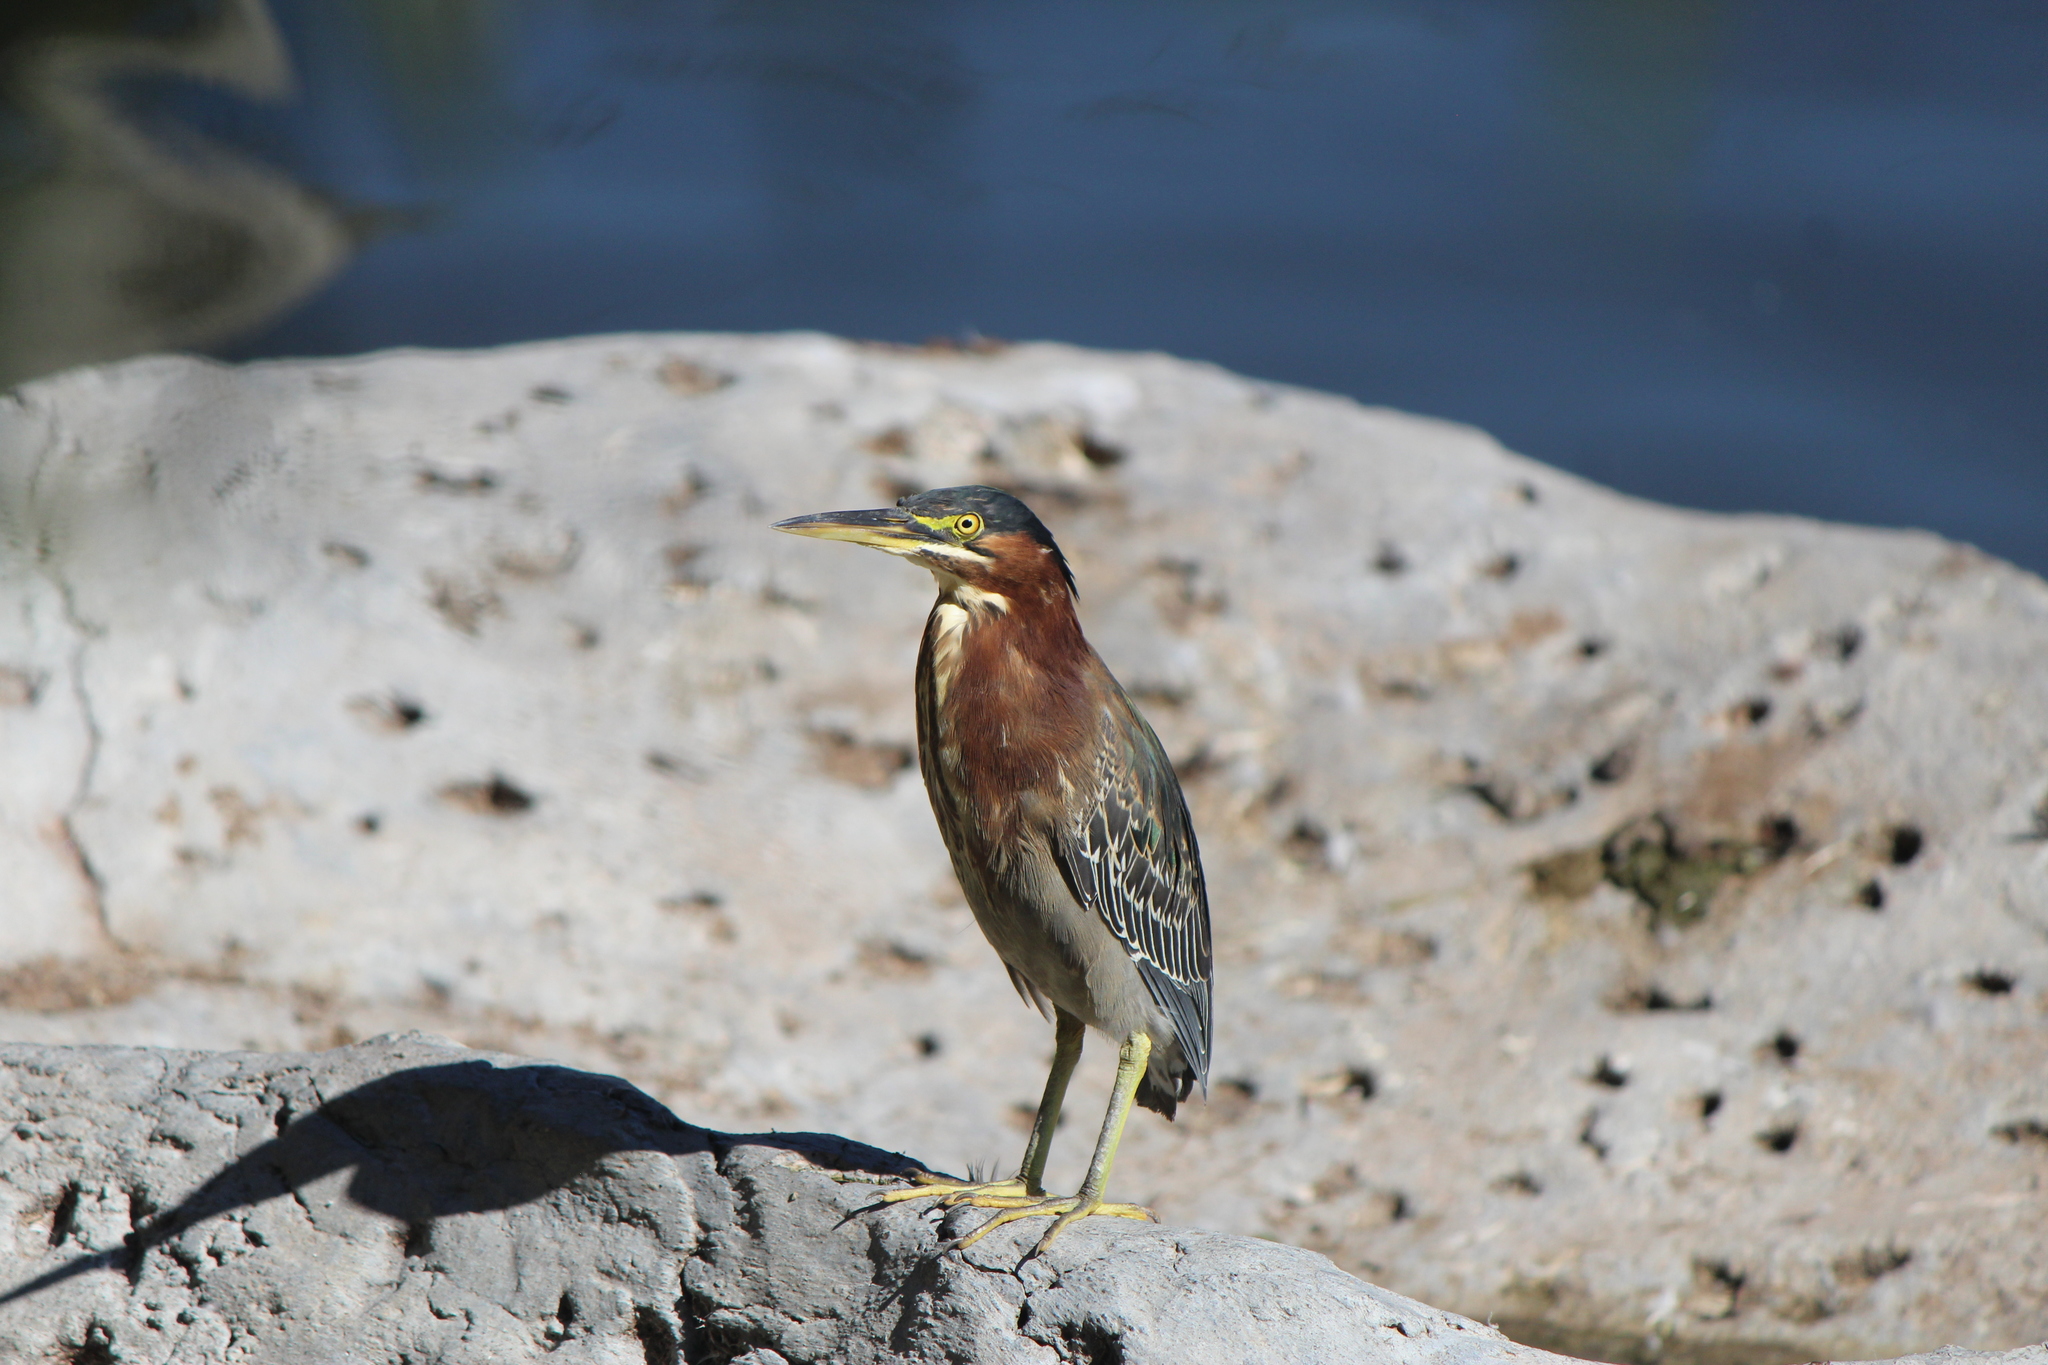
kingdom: Animalia
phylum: Chordata
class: Aves
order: Pelecaniformes
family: Ardeidae
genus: Butorides
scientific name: Butorides virescens
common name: Green heron
